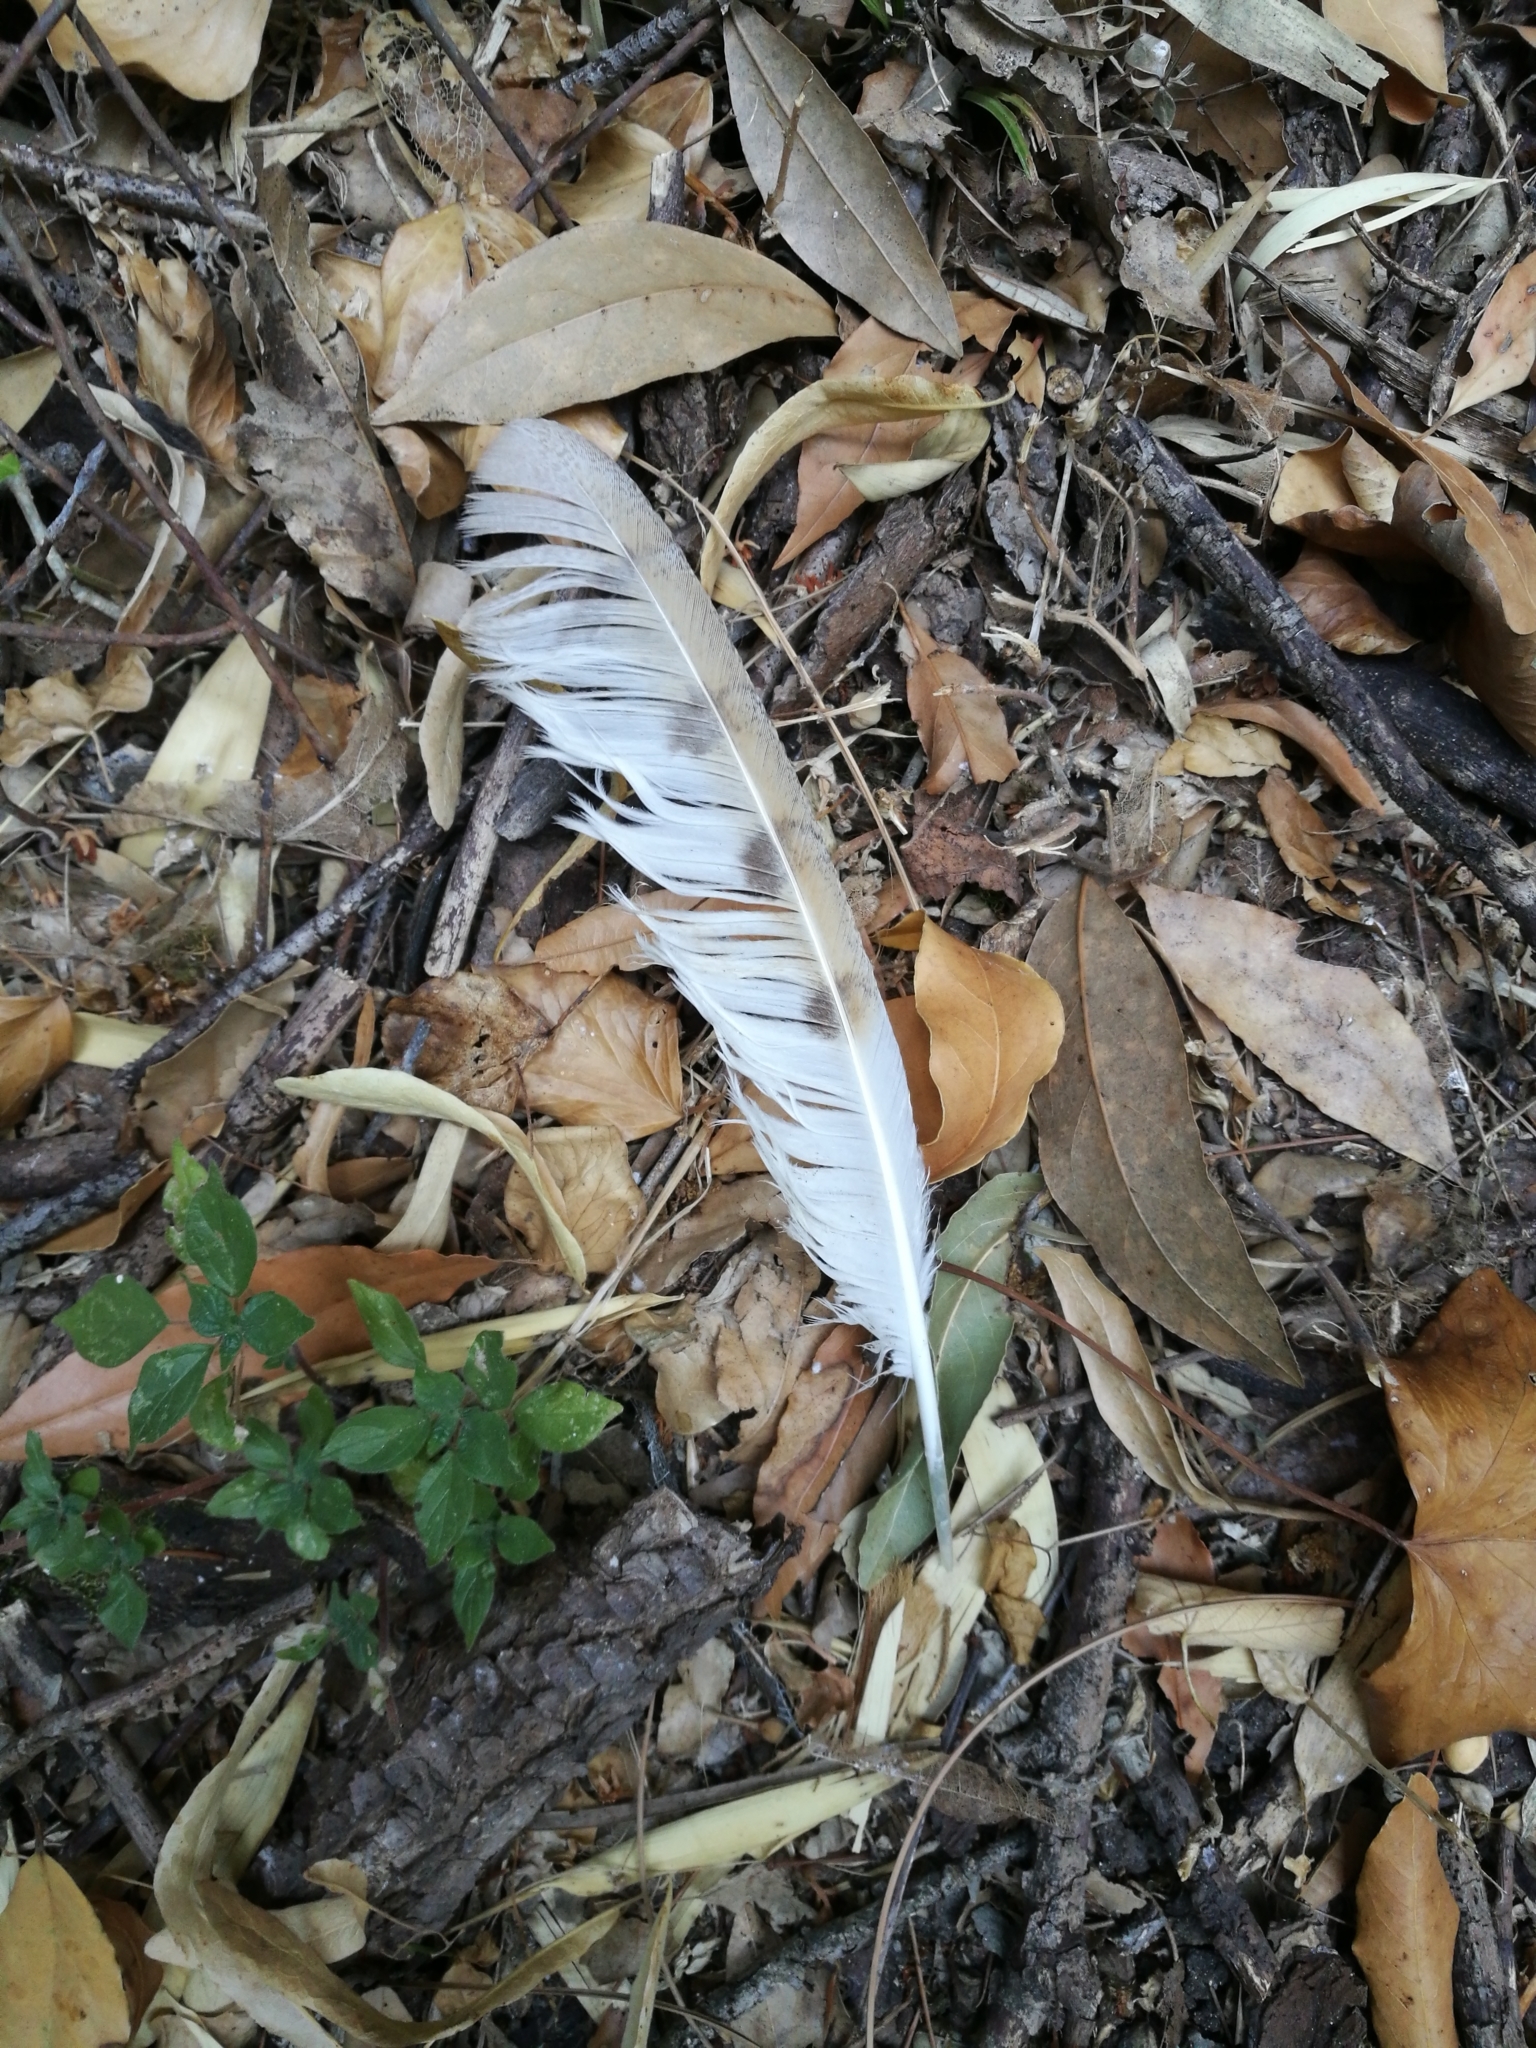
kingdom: Animalia
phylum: Chordata
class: Aves
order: Strigiformes
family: Tytonidae
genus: Tyto
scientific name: Tyto alba
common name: Barn owl
